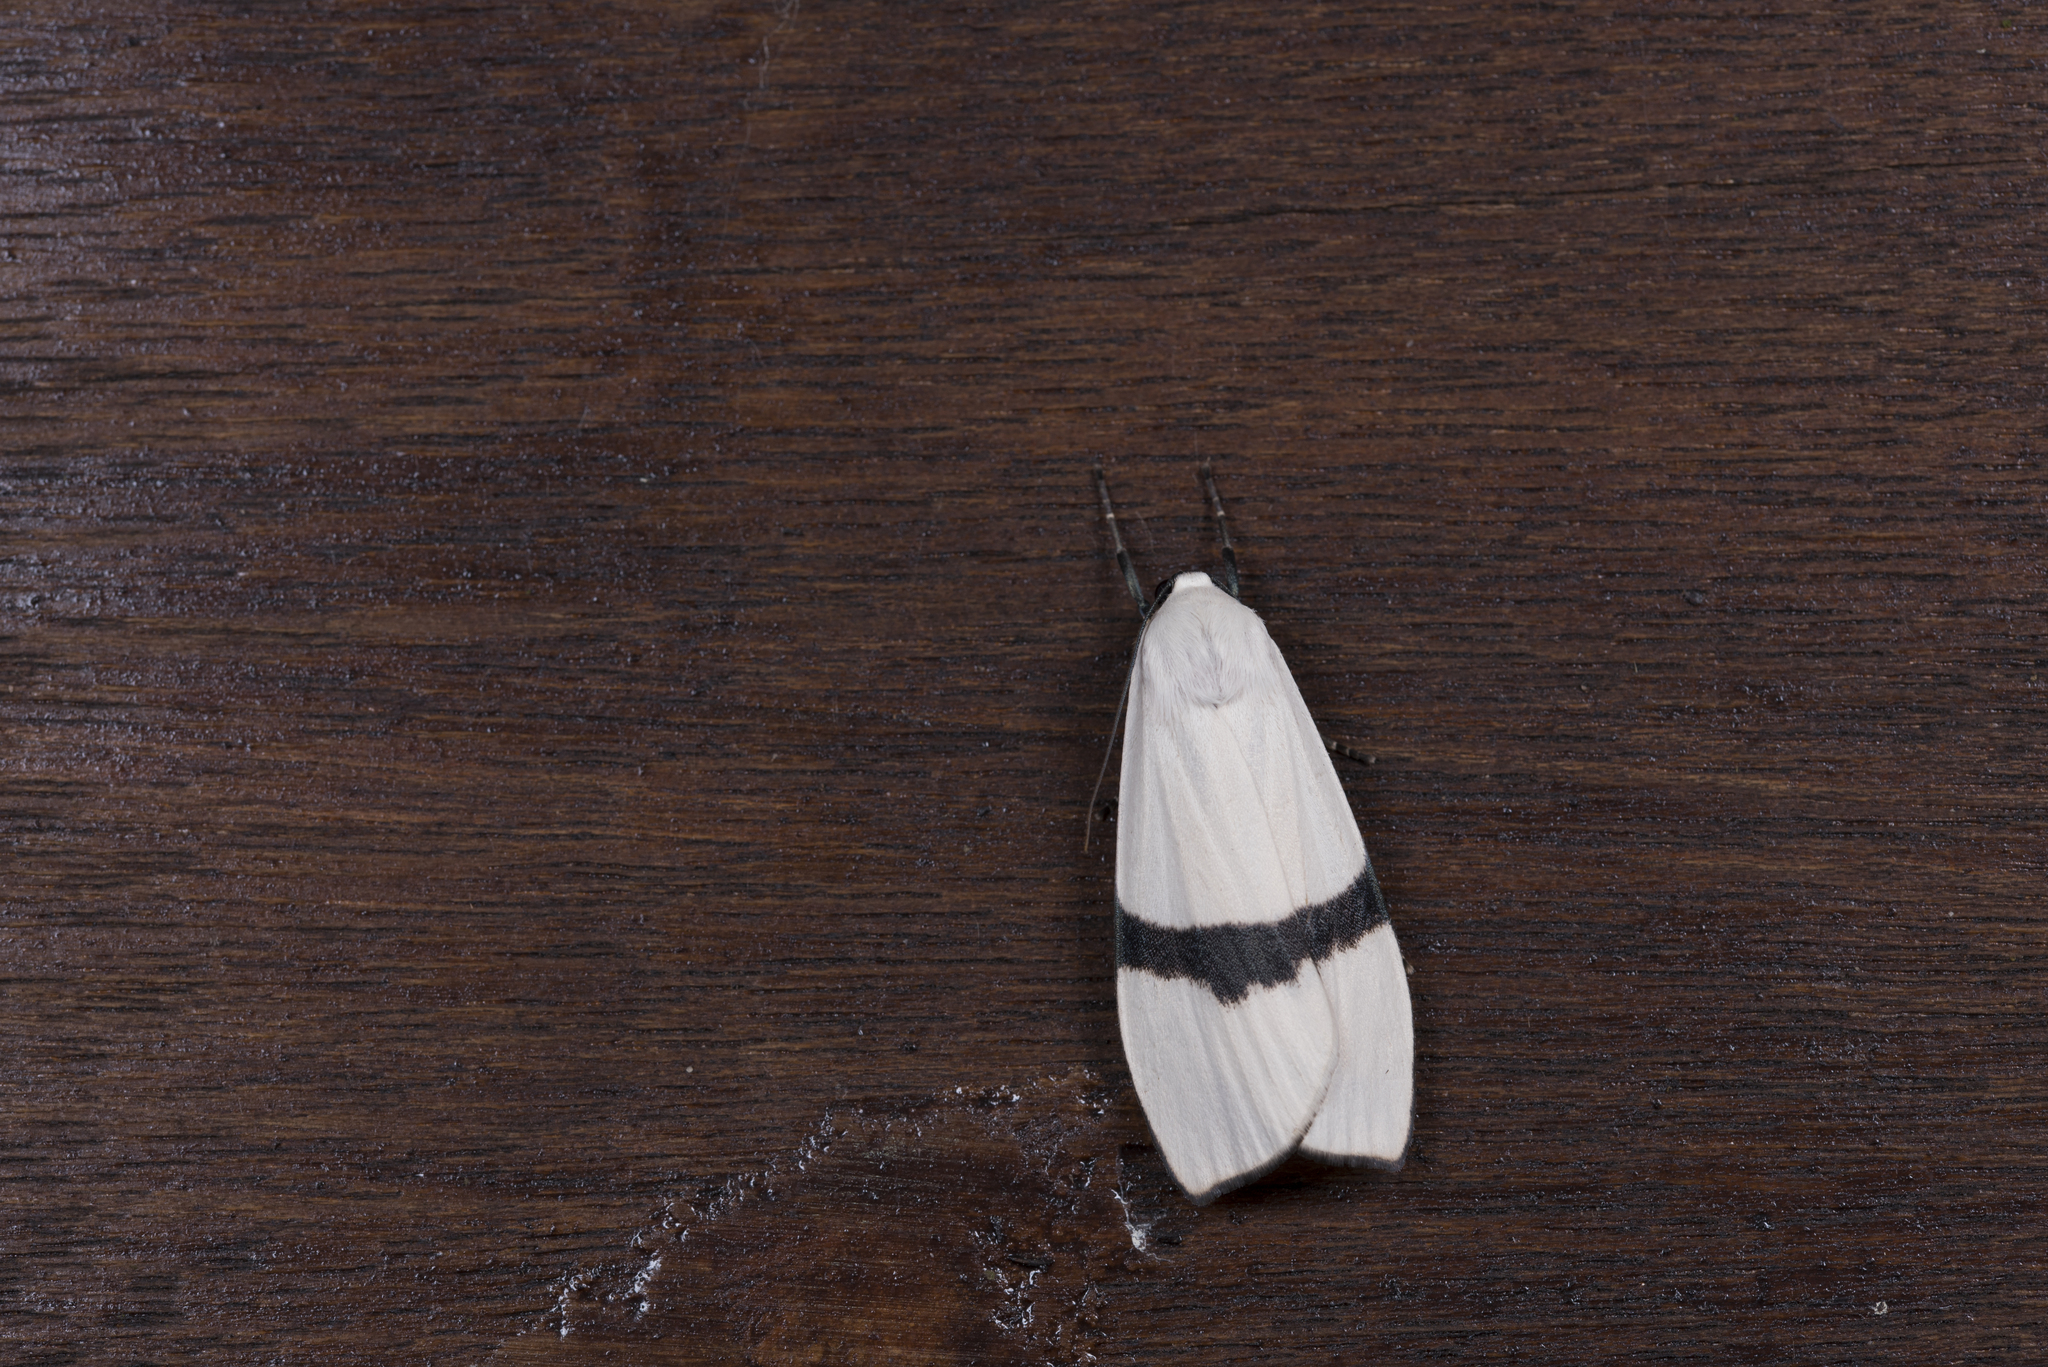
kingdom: Animalia
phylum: Arthropoda
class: Insecta
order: Lepidoptera
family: Erebidae
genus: Vamuna
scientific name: Vamuna alboluteola
